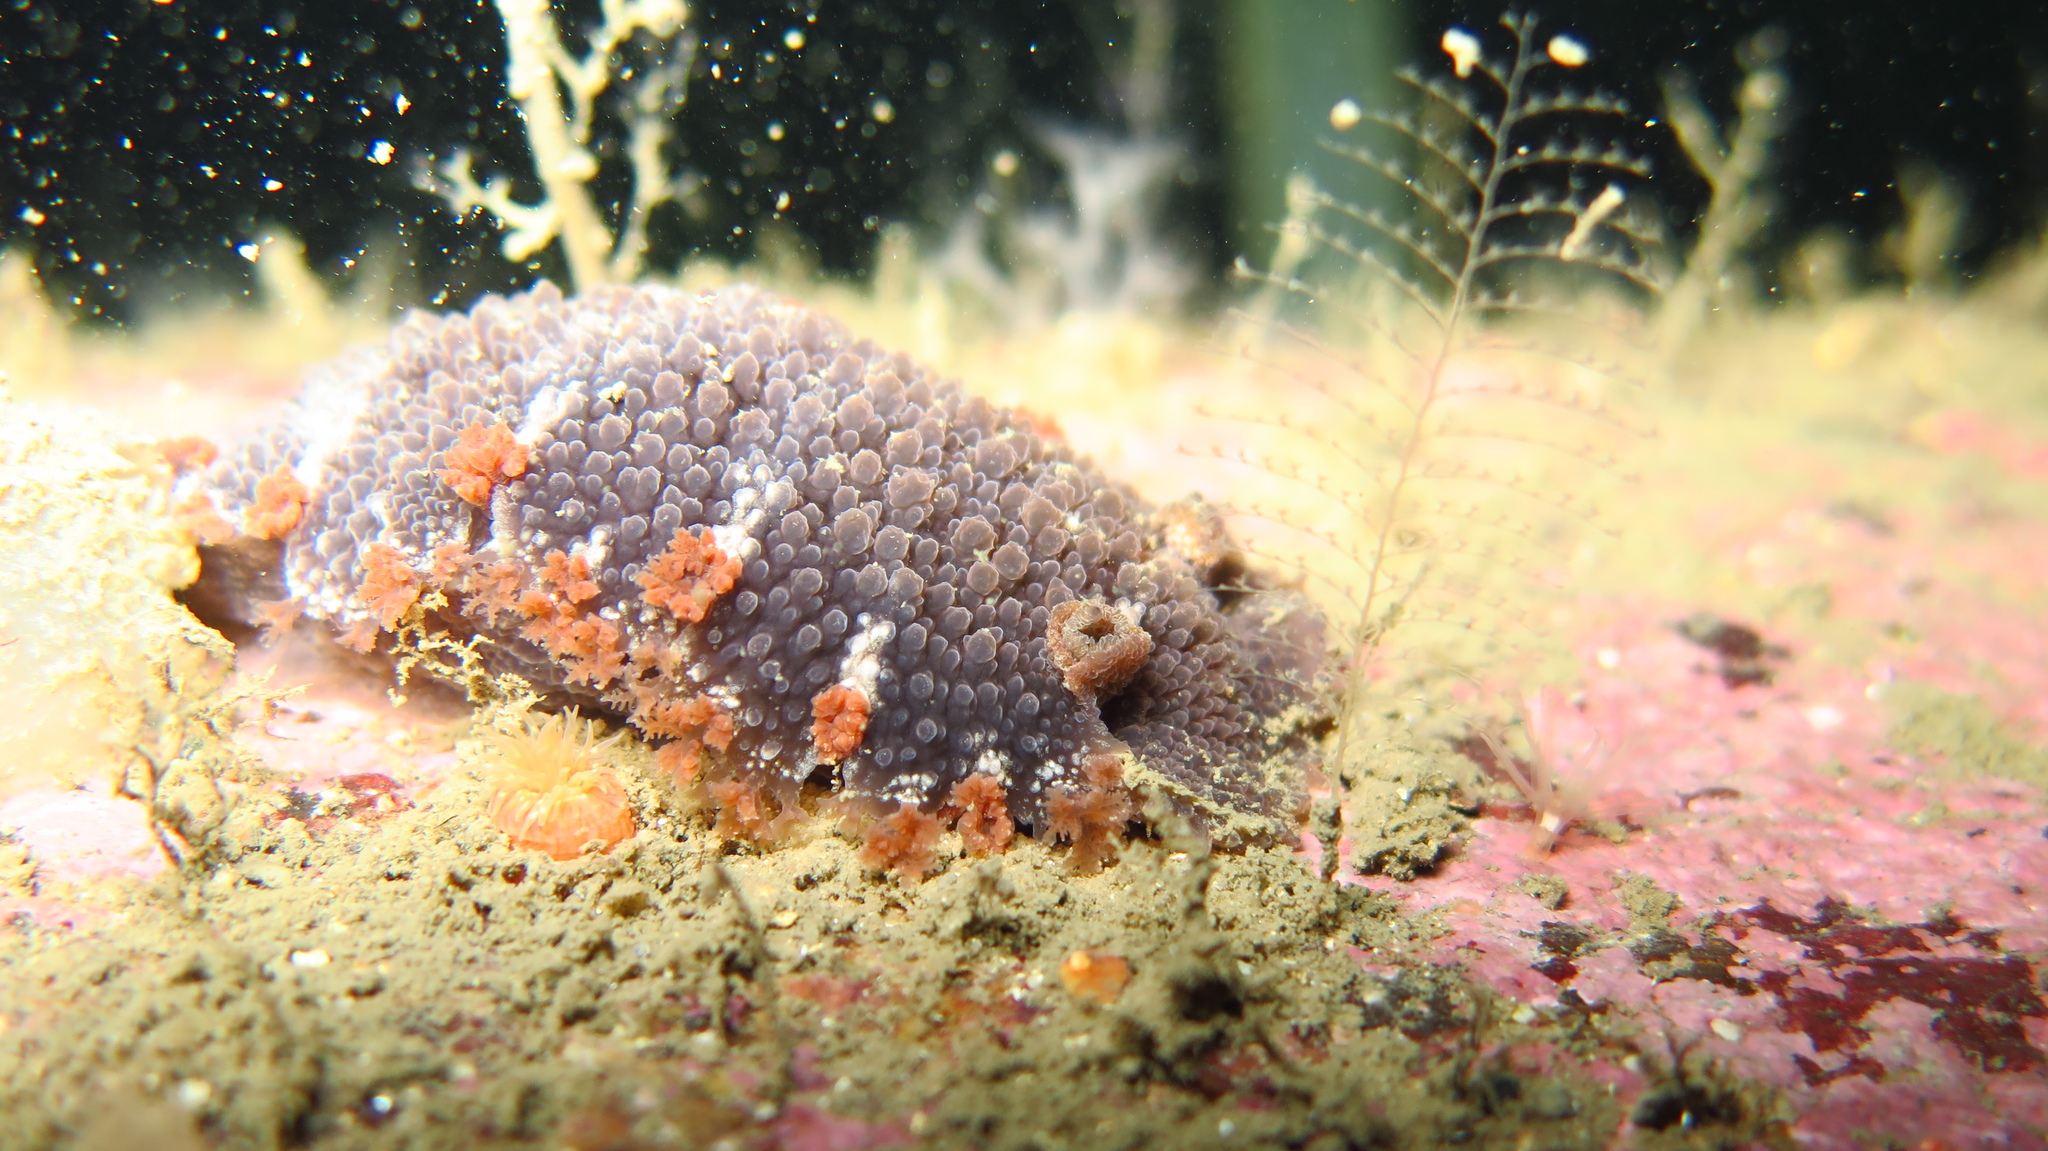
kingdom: Animalia
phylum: Mollusca
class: Gastropoda
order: Nudibranchia
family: Tritoniidae
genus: Tritonia
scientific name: Tritonia hombergii
